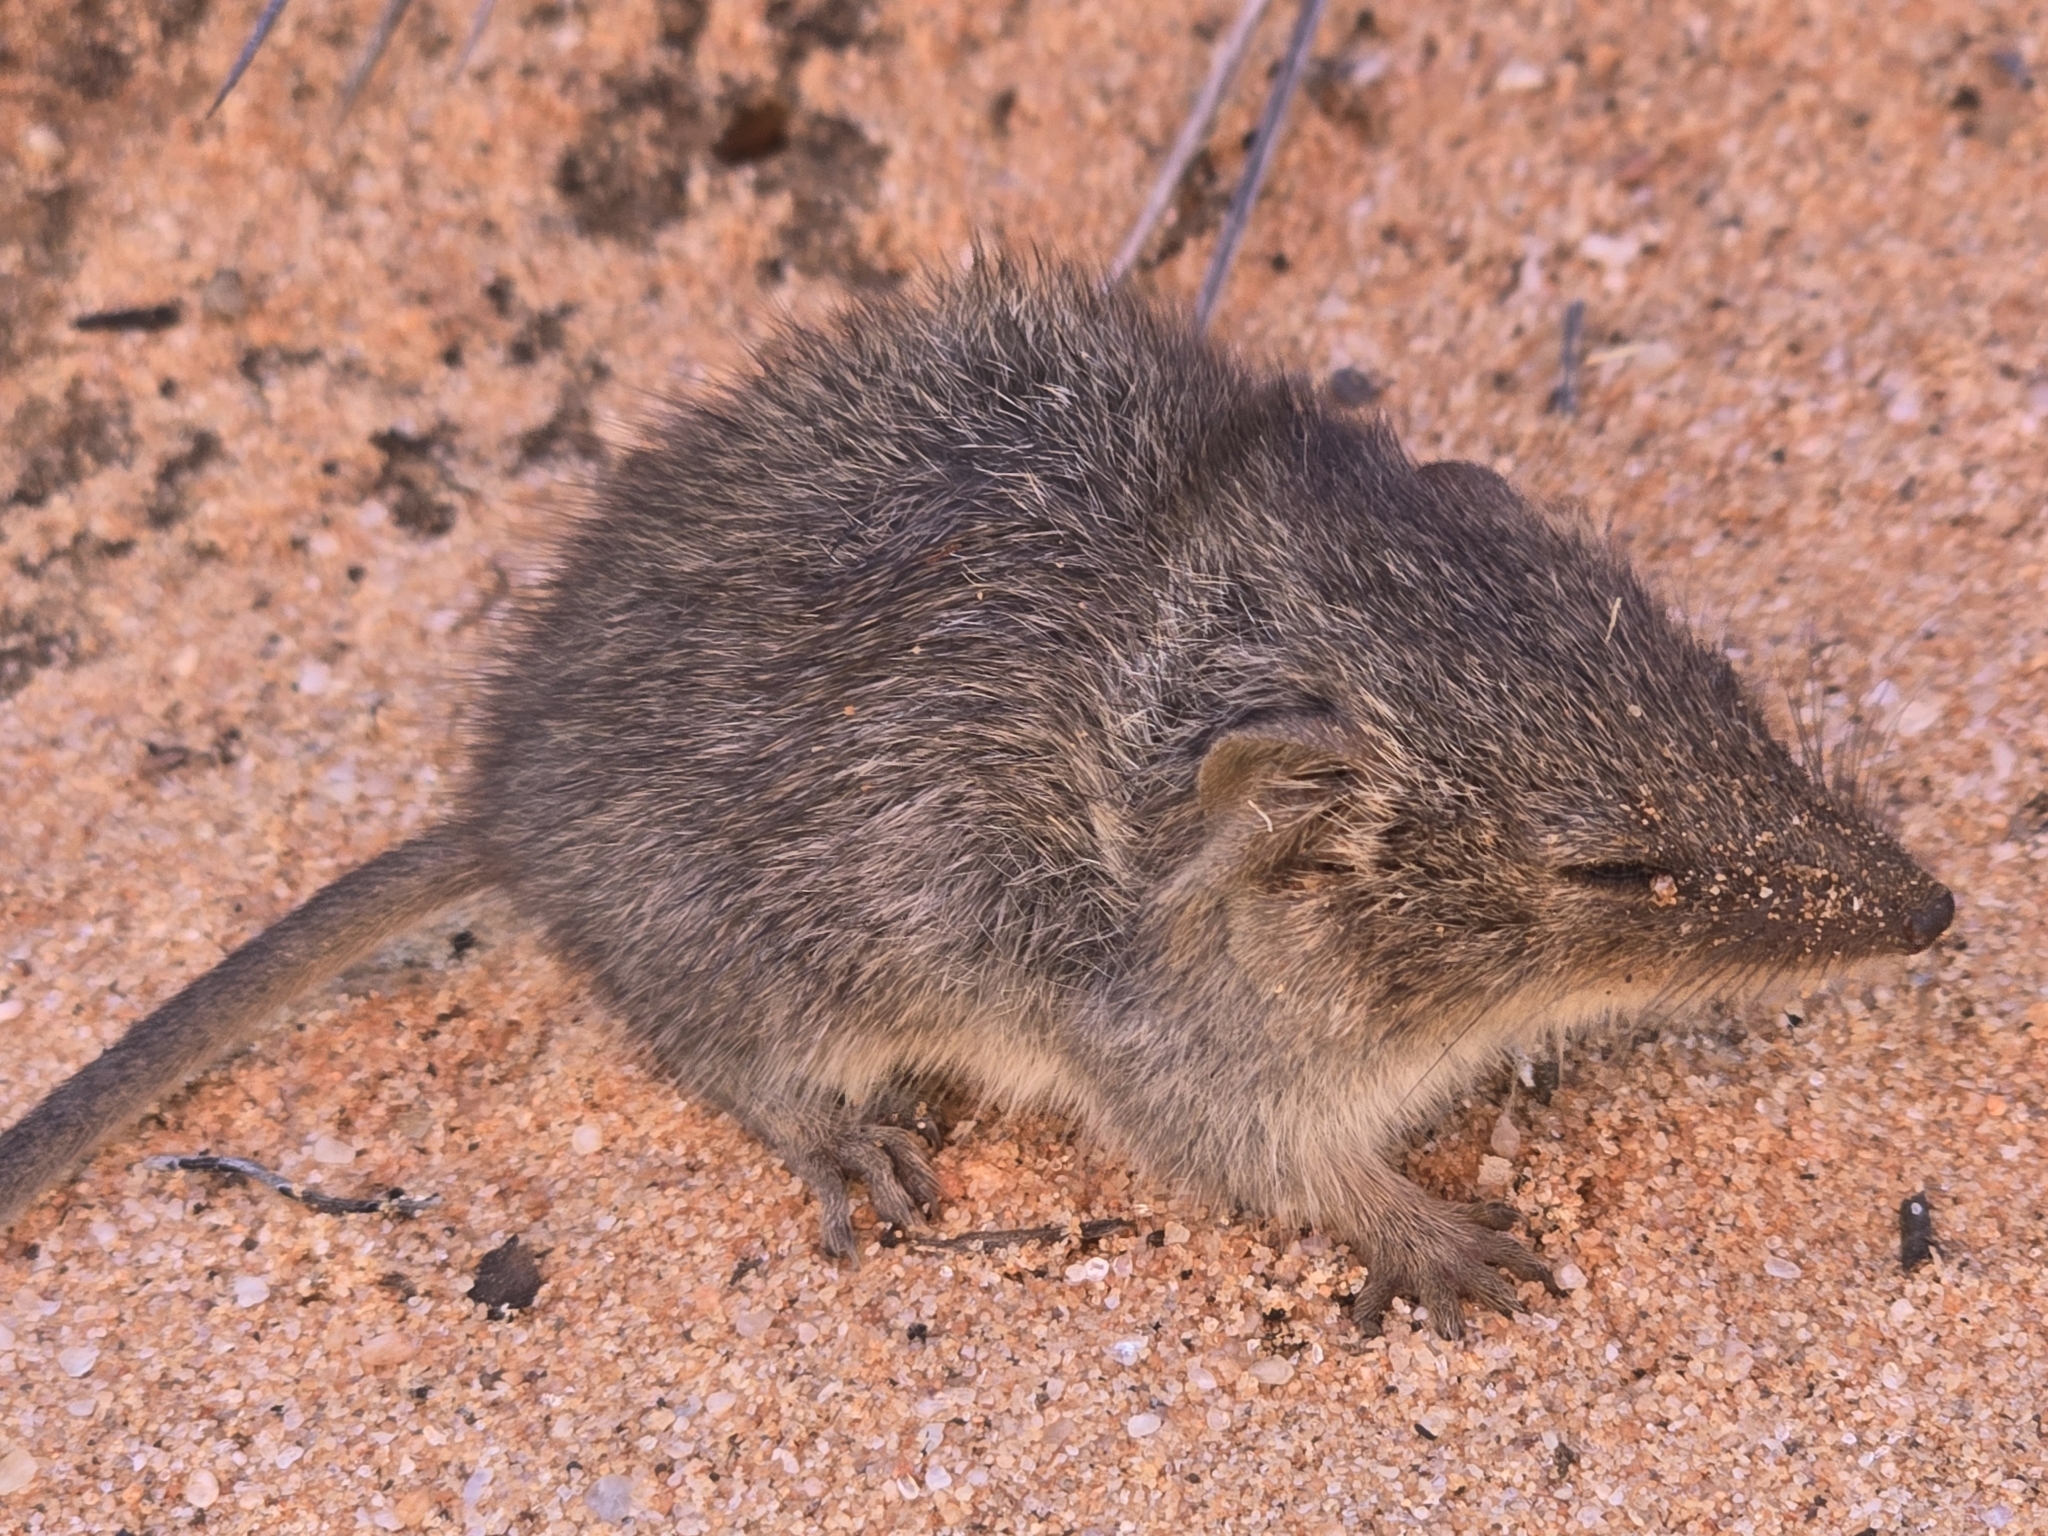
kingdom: Animalia
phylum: Chordata
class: Mammalia
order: Dasyuromorphia
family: Dasyuridae
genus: Ningaui
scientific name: Ningaui yvonneae
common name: Southern ningaui
